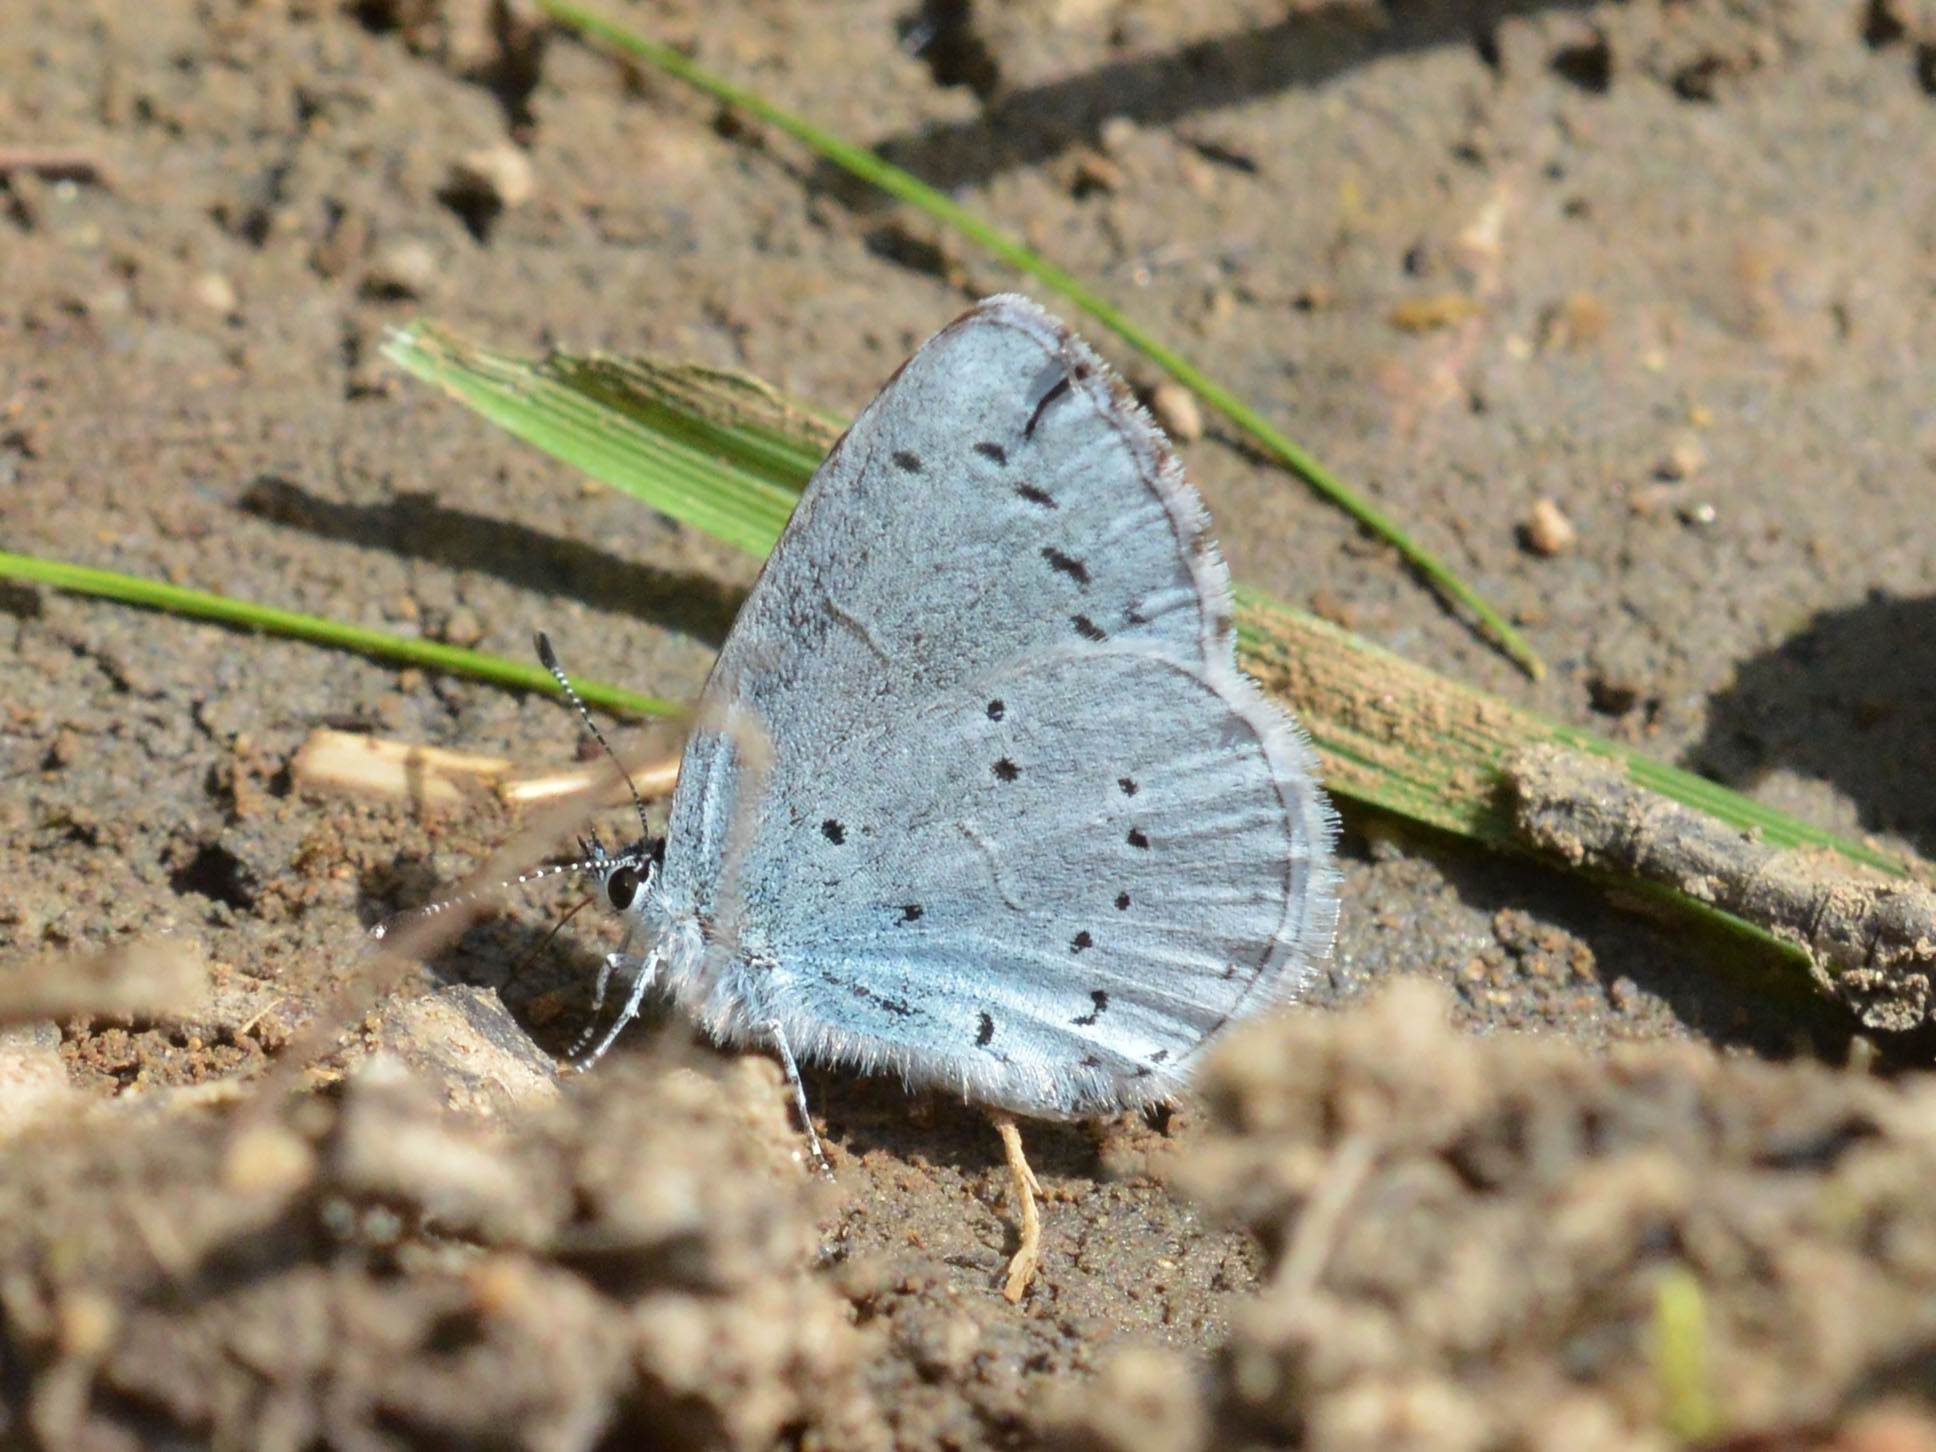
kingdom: Animalia
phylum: Arthropoda
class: Insecta
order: Lepidoptera
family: Lycaenidae
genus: Celastrina
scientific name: Celastrina argiolus
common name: Holly blue
